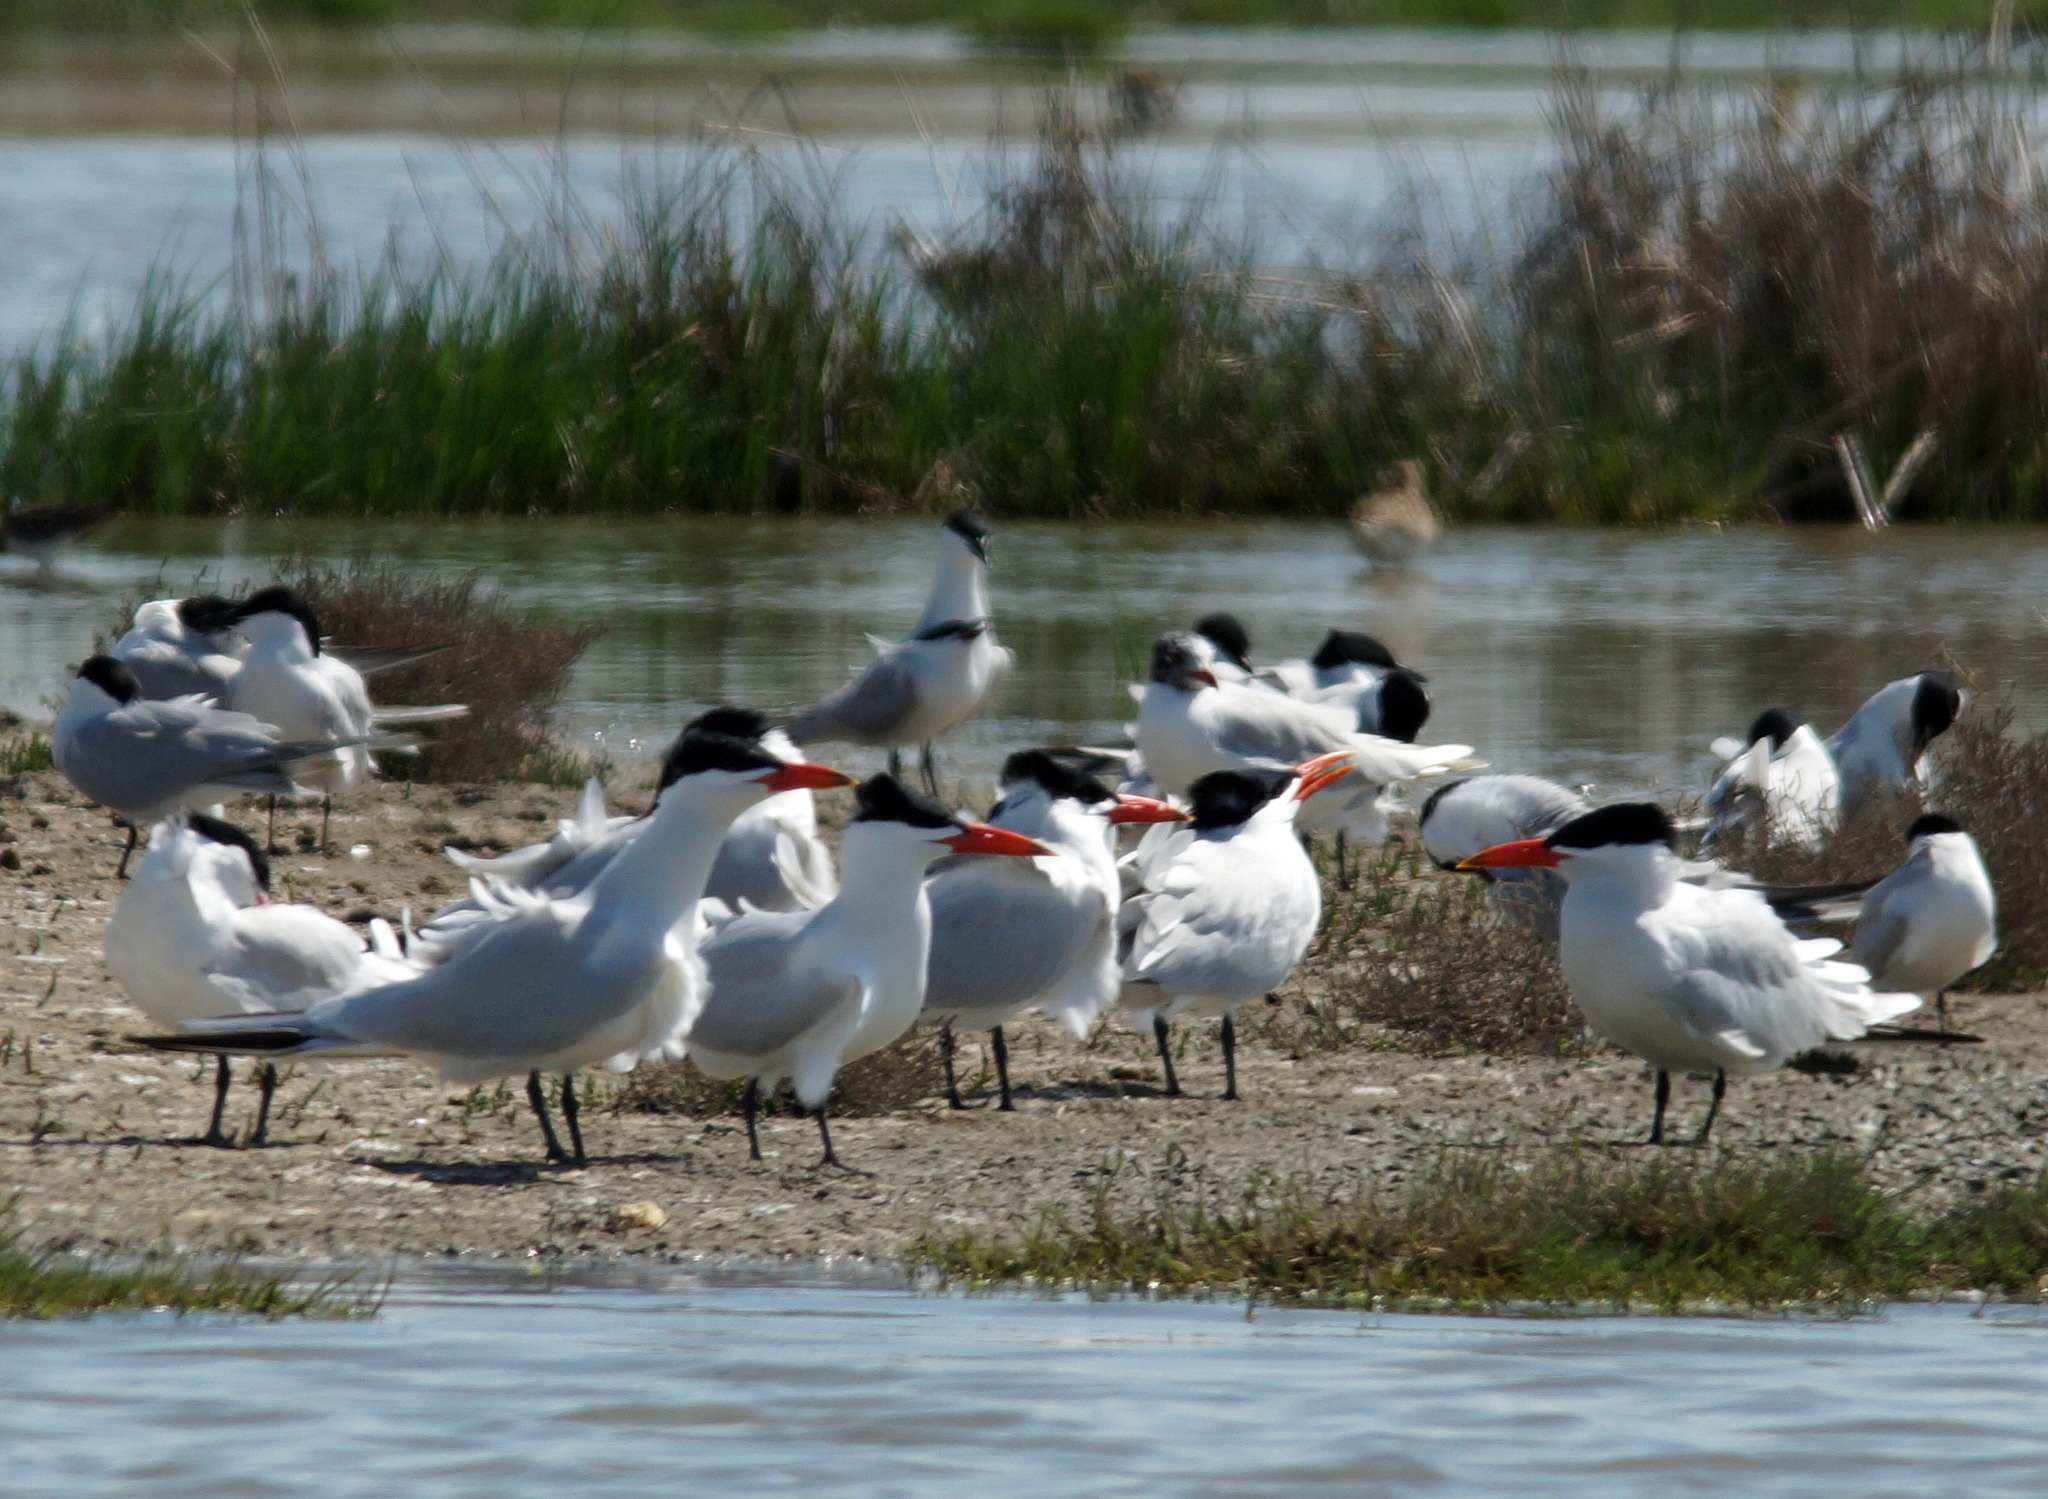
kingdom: Animalia
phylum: Chordata
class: Aves
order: Charadriiformes
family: Laridae
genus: Hydroprogne
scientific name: Hydroprogne caspia
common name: Caspian tern
